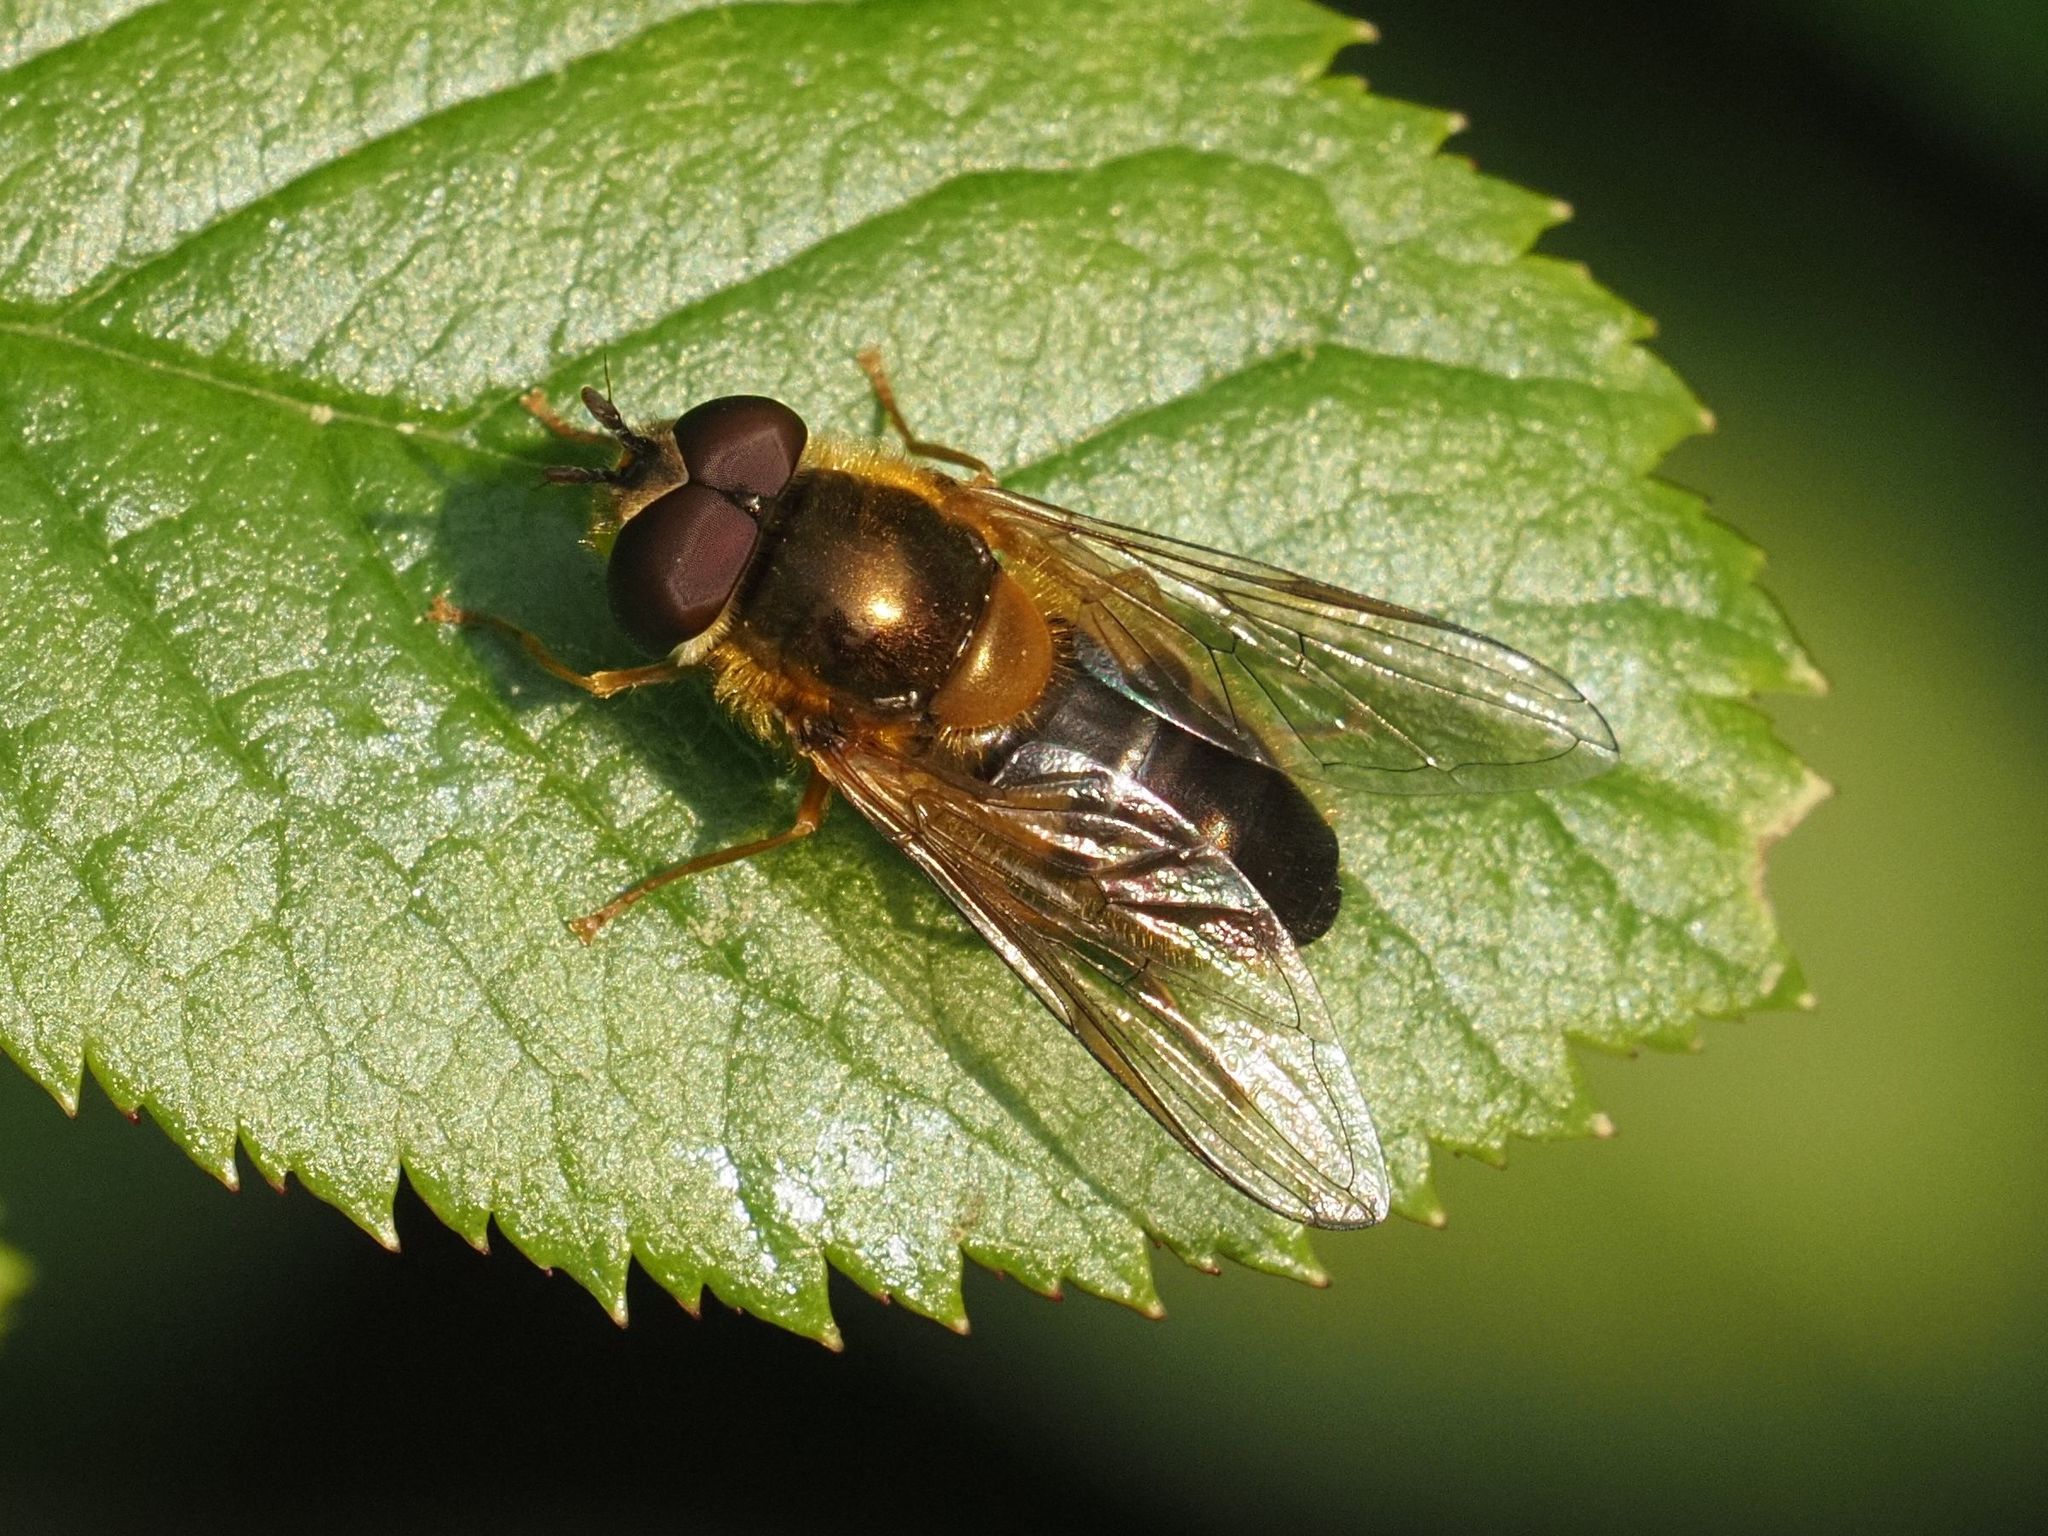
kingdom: Animalia
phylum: Arthropoda
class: Insecta
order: Diptera
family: Syrphidae
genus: Epistrophe
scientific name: Epistrophe eligans
